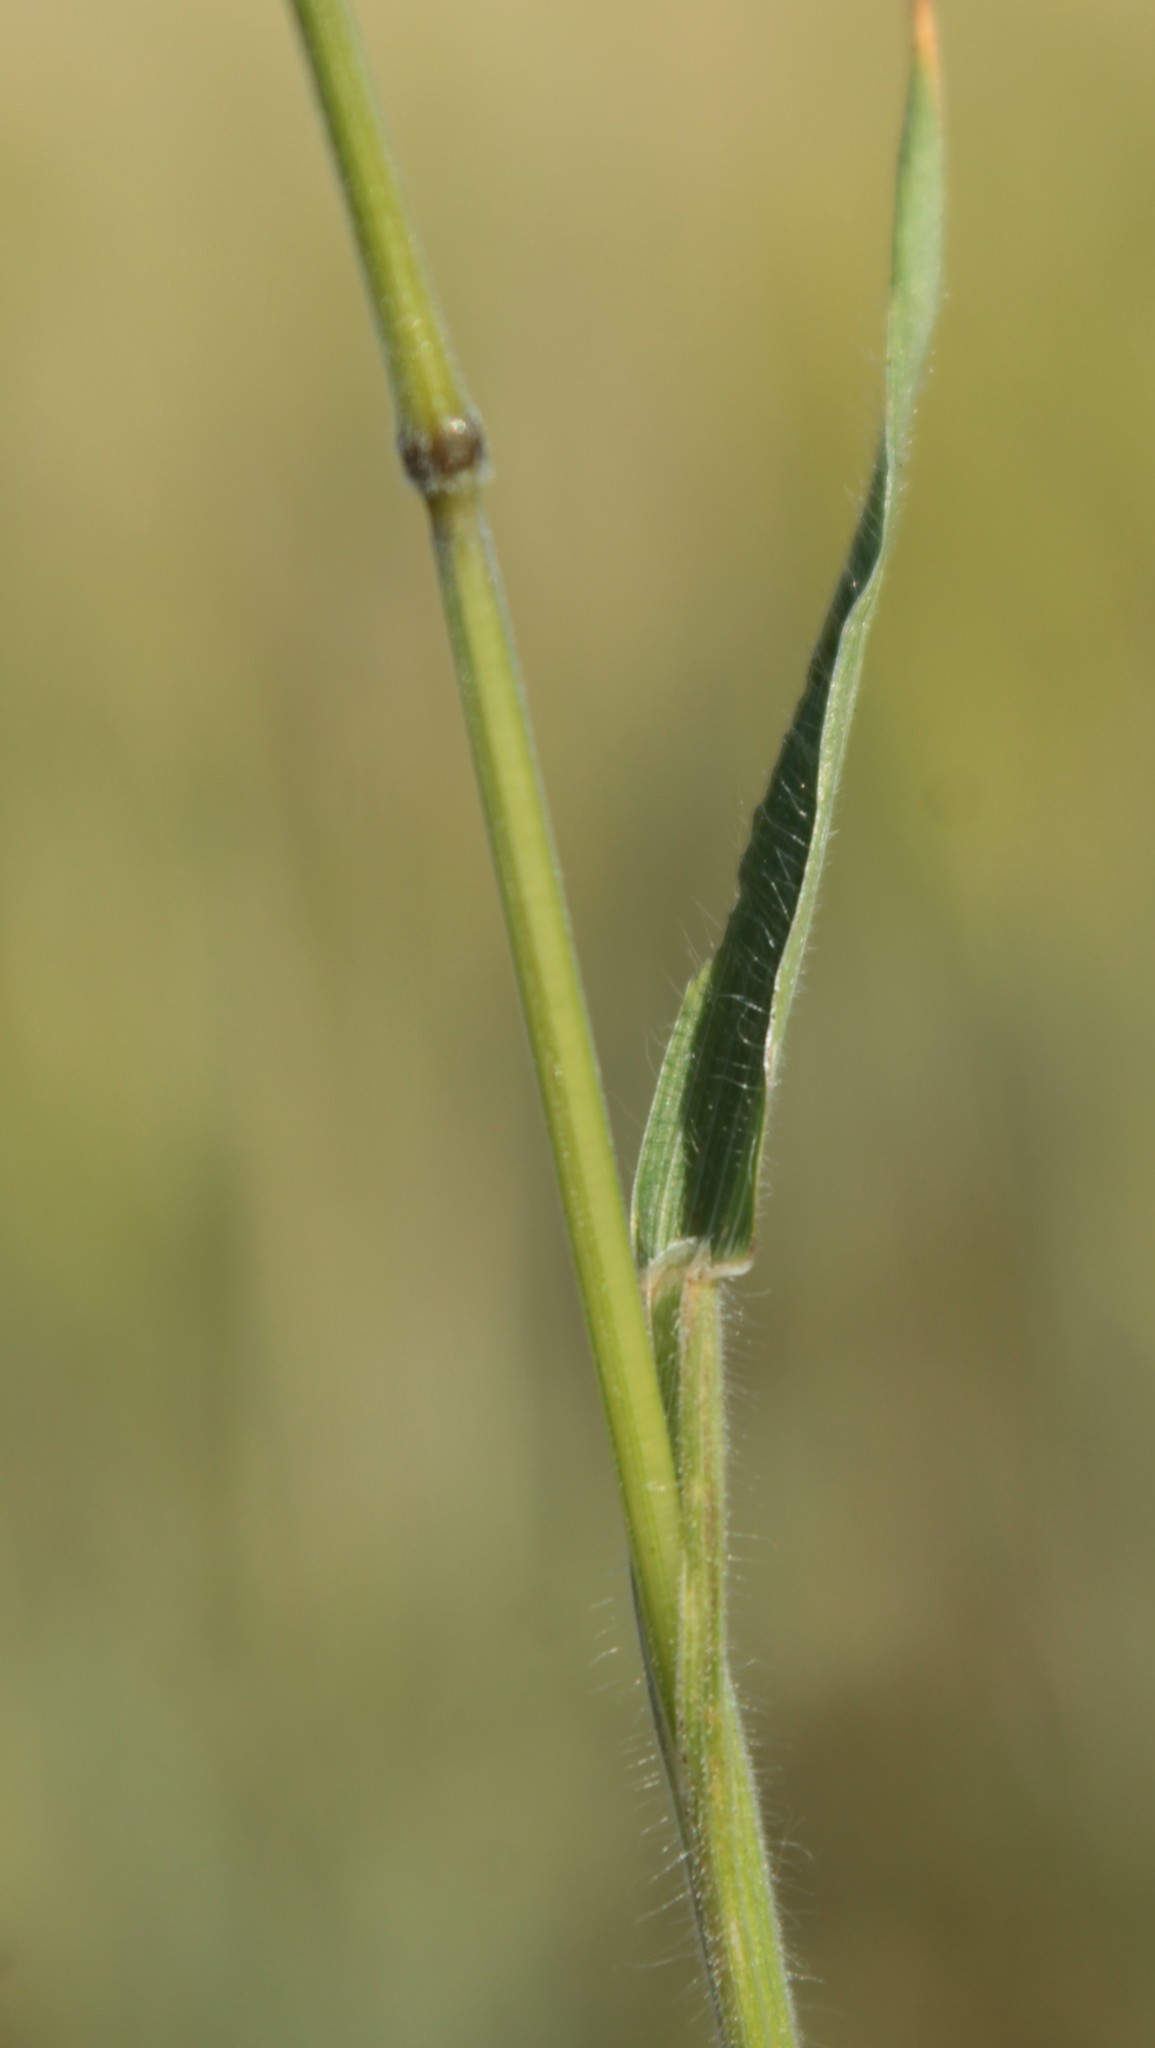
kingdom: Plantae
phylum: Tracheophyta
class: Liliopsida
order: Poales
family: Poaceae
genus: Bromus
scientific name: Bromus hordeaceus
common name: Soft brome
